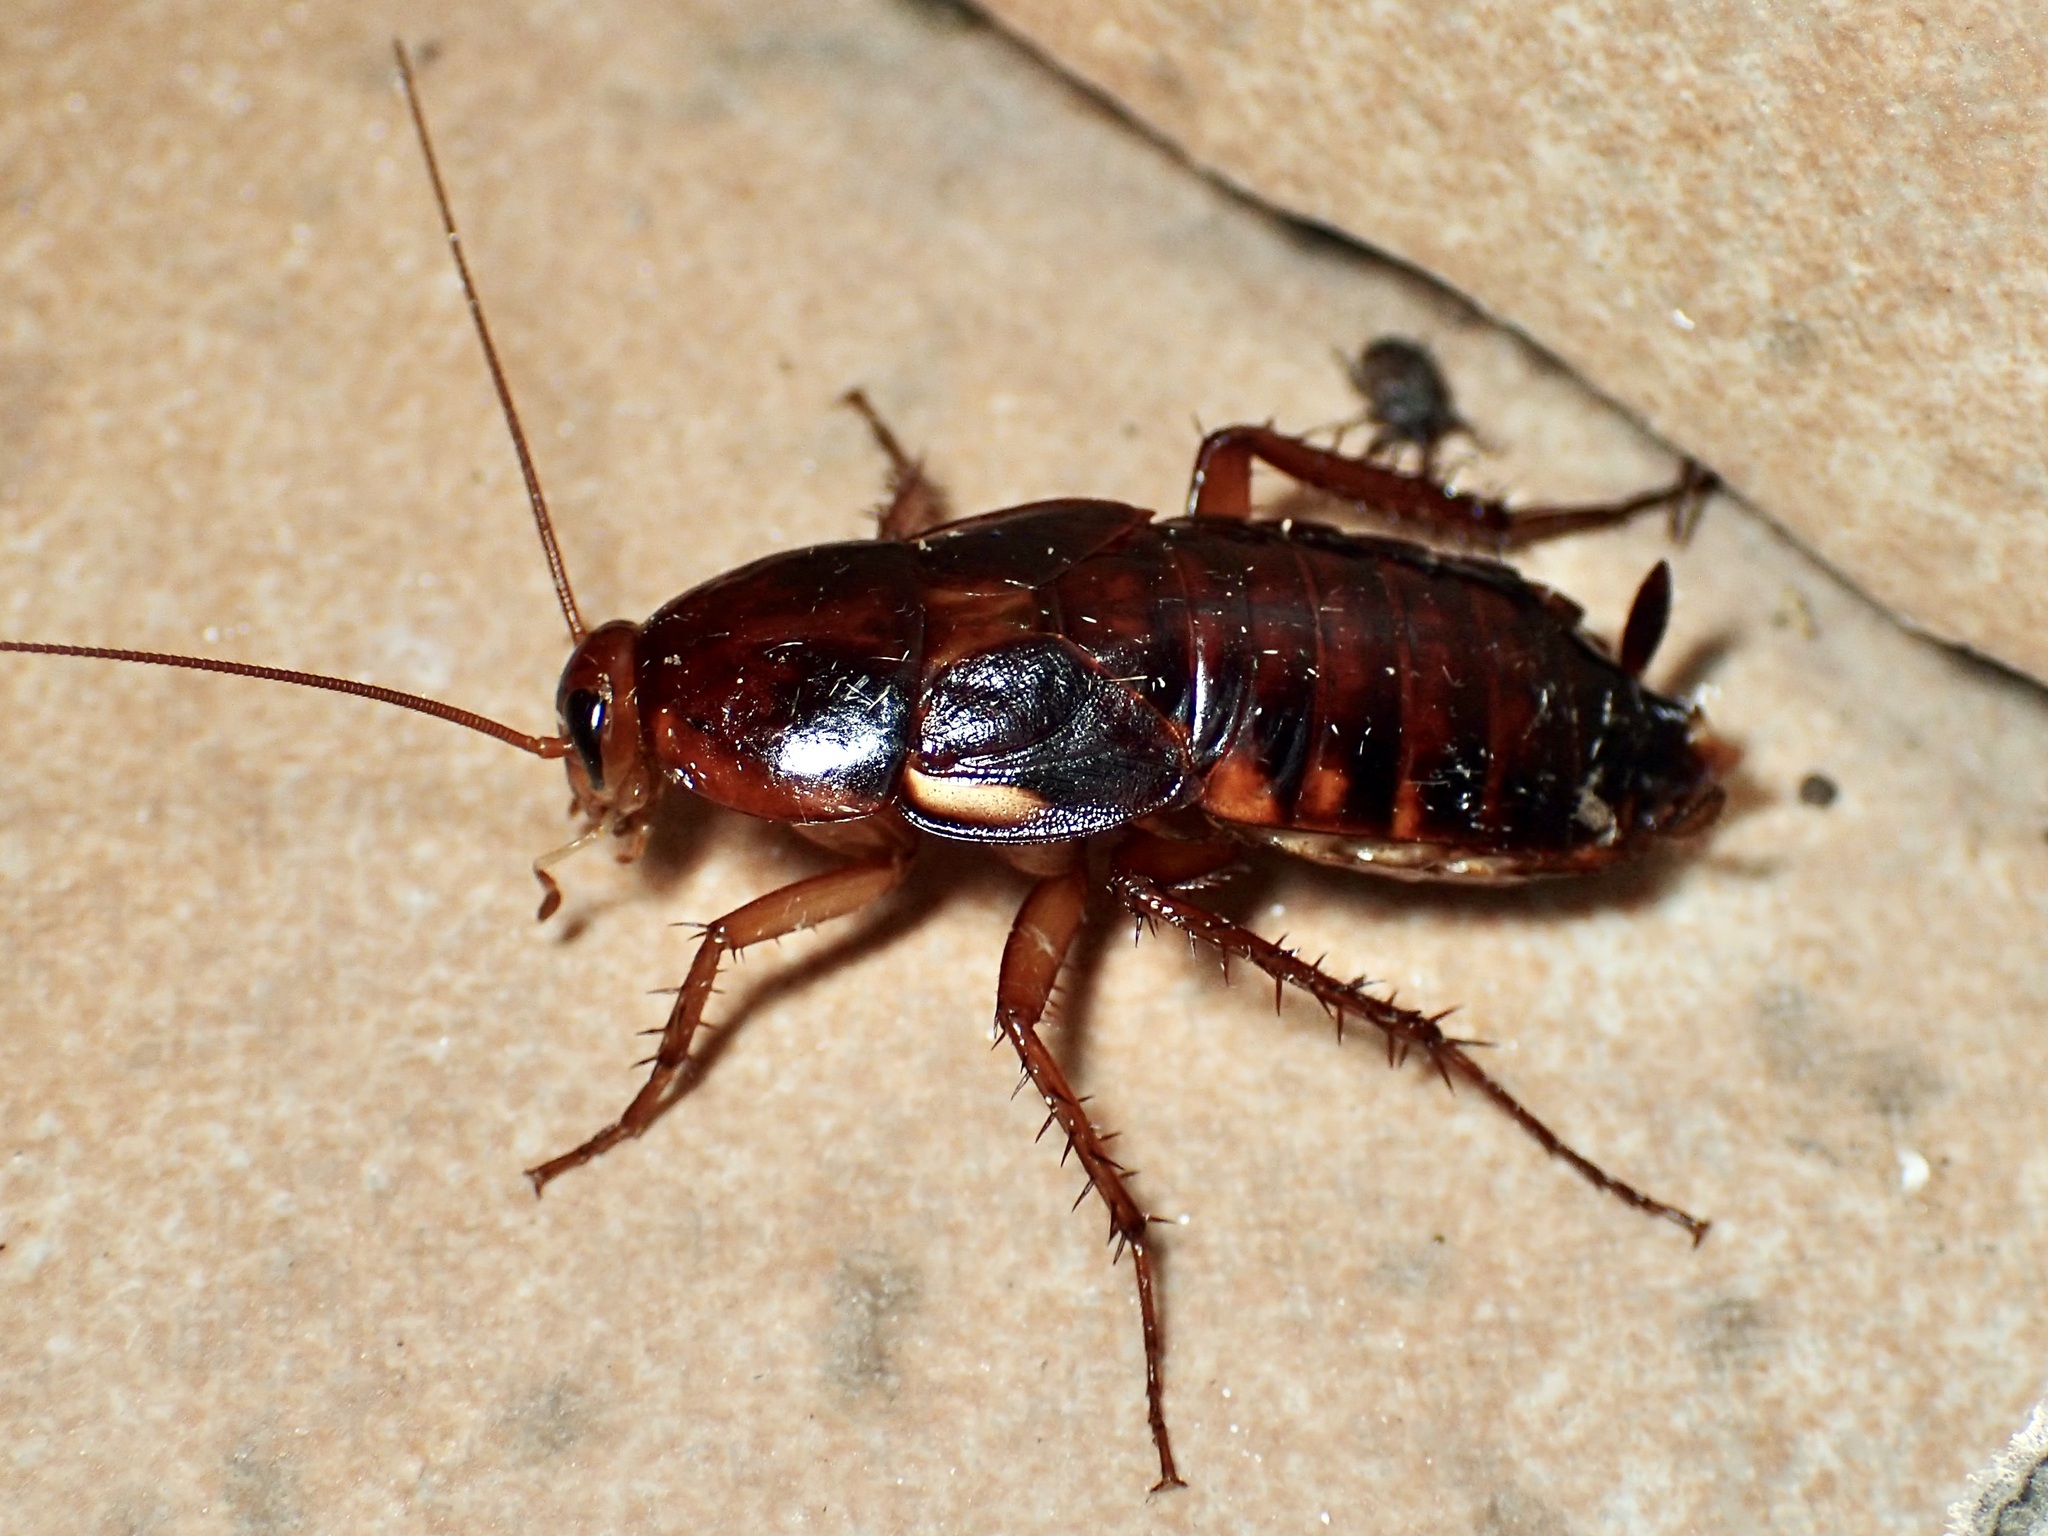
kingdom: Animalia
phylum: Arthropoda
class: Insecta
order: Blattodea
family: Blattidae
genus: Periplaneta
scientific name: Periplaneta lateralis
